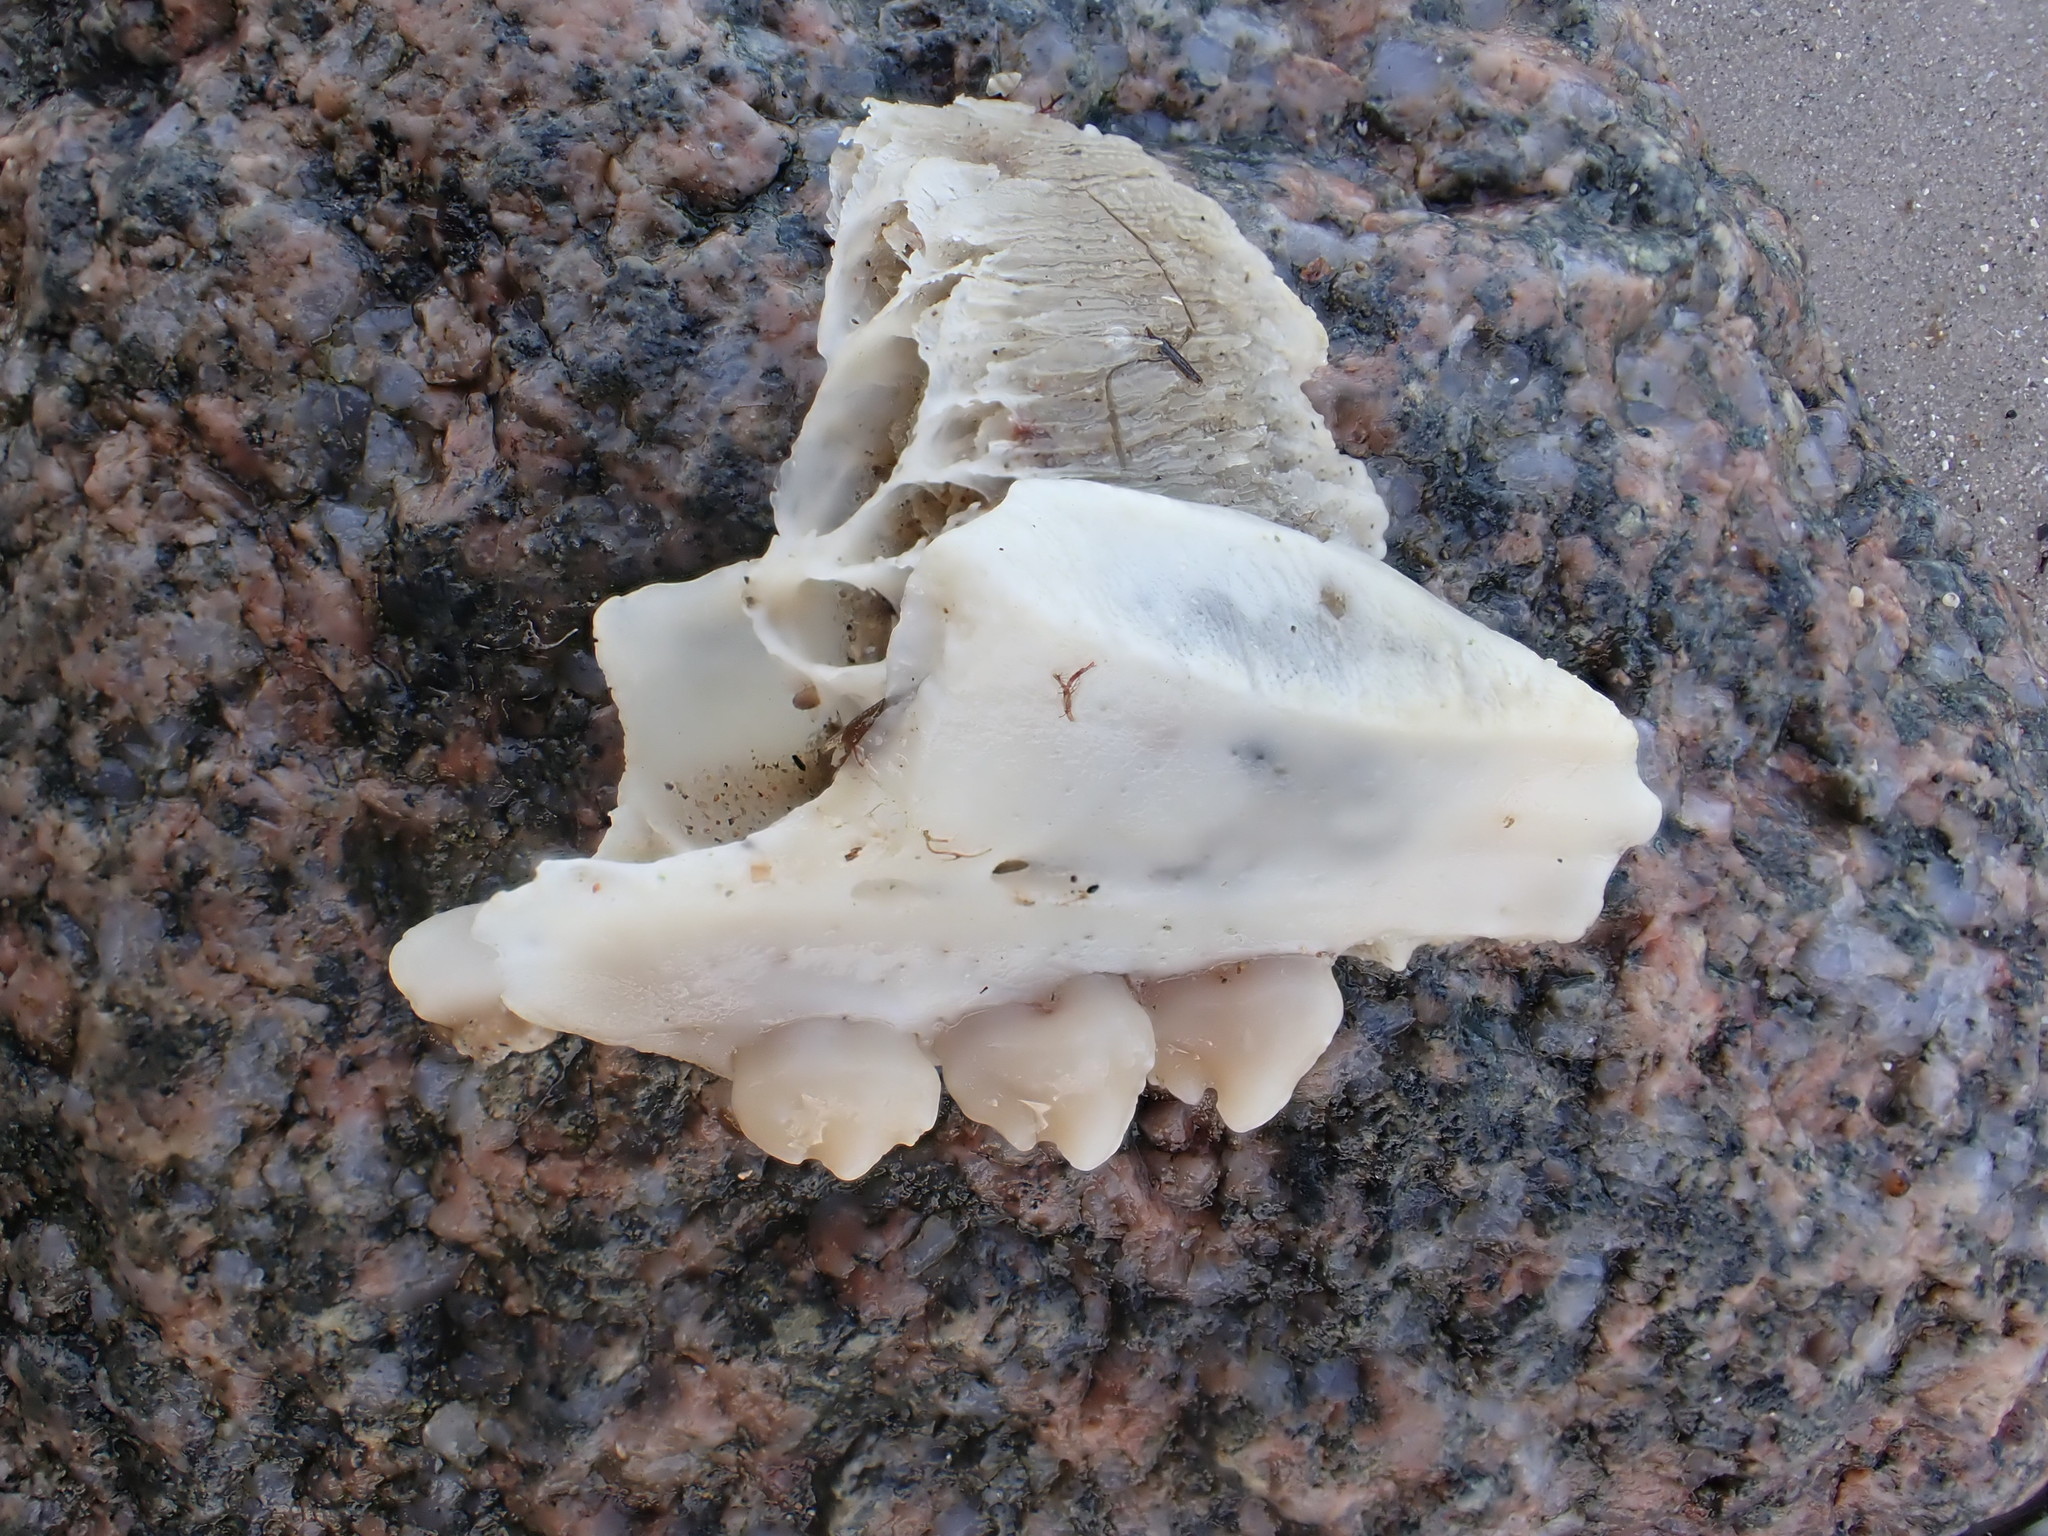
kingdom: Animalia
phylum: Chordata
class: Mammalia
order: Carnivora
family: Phocidae
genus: Phoca
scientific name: Phoca vitulina
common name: Harbor seal
